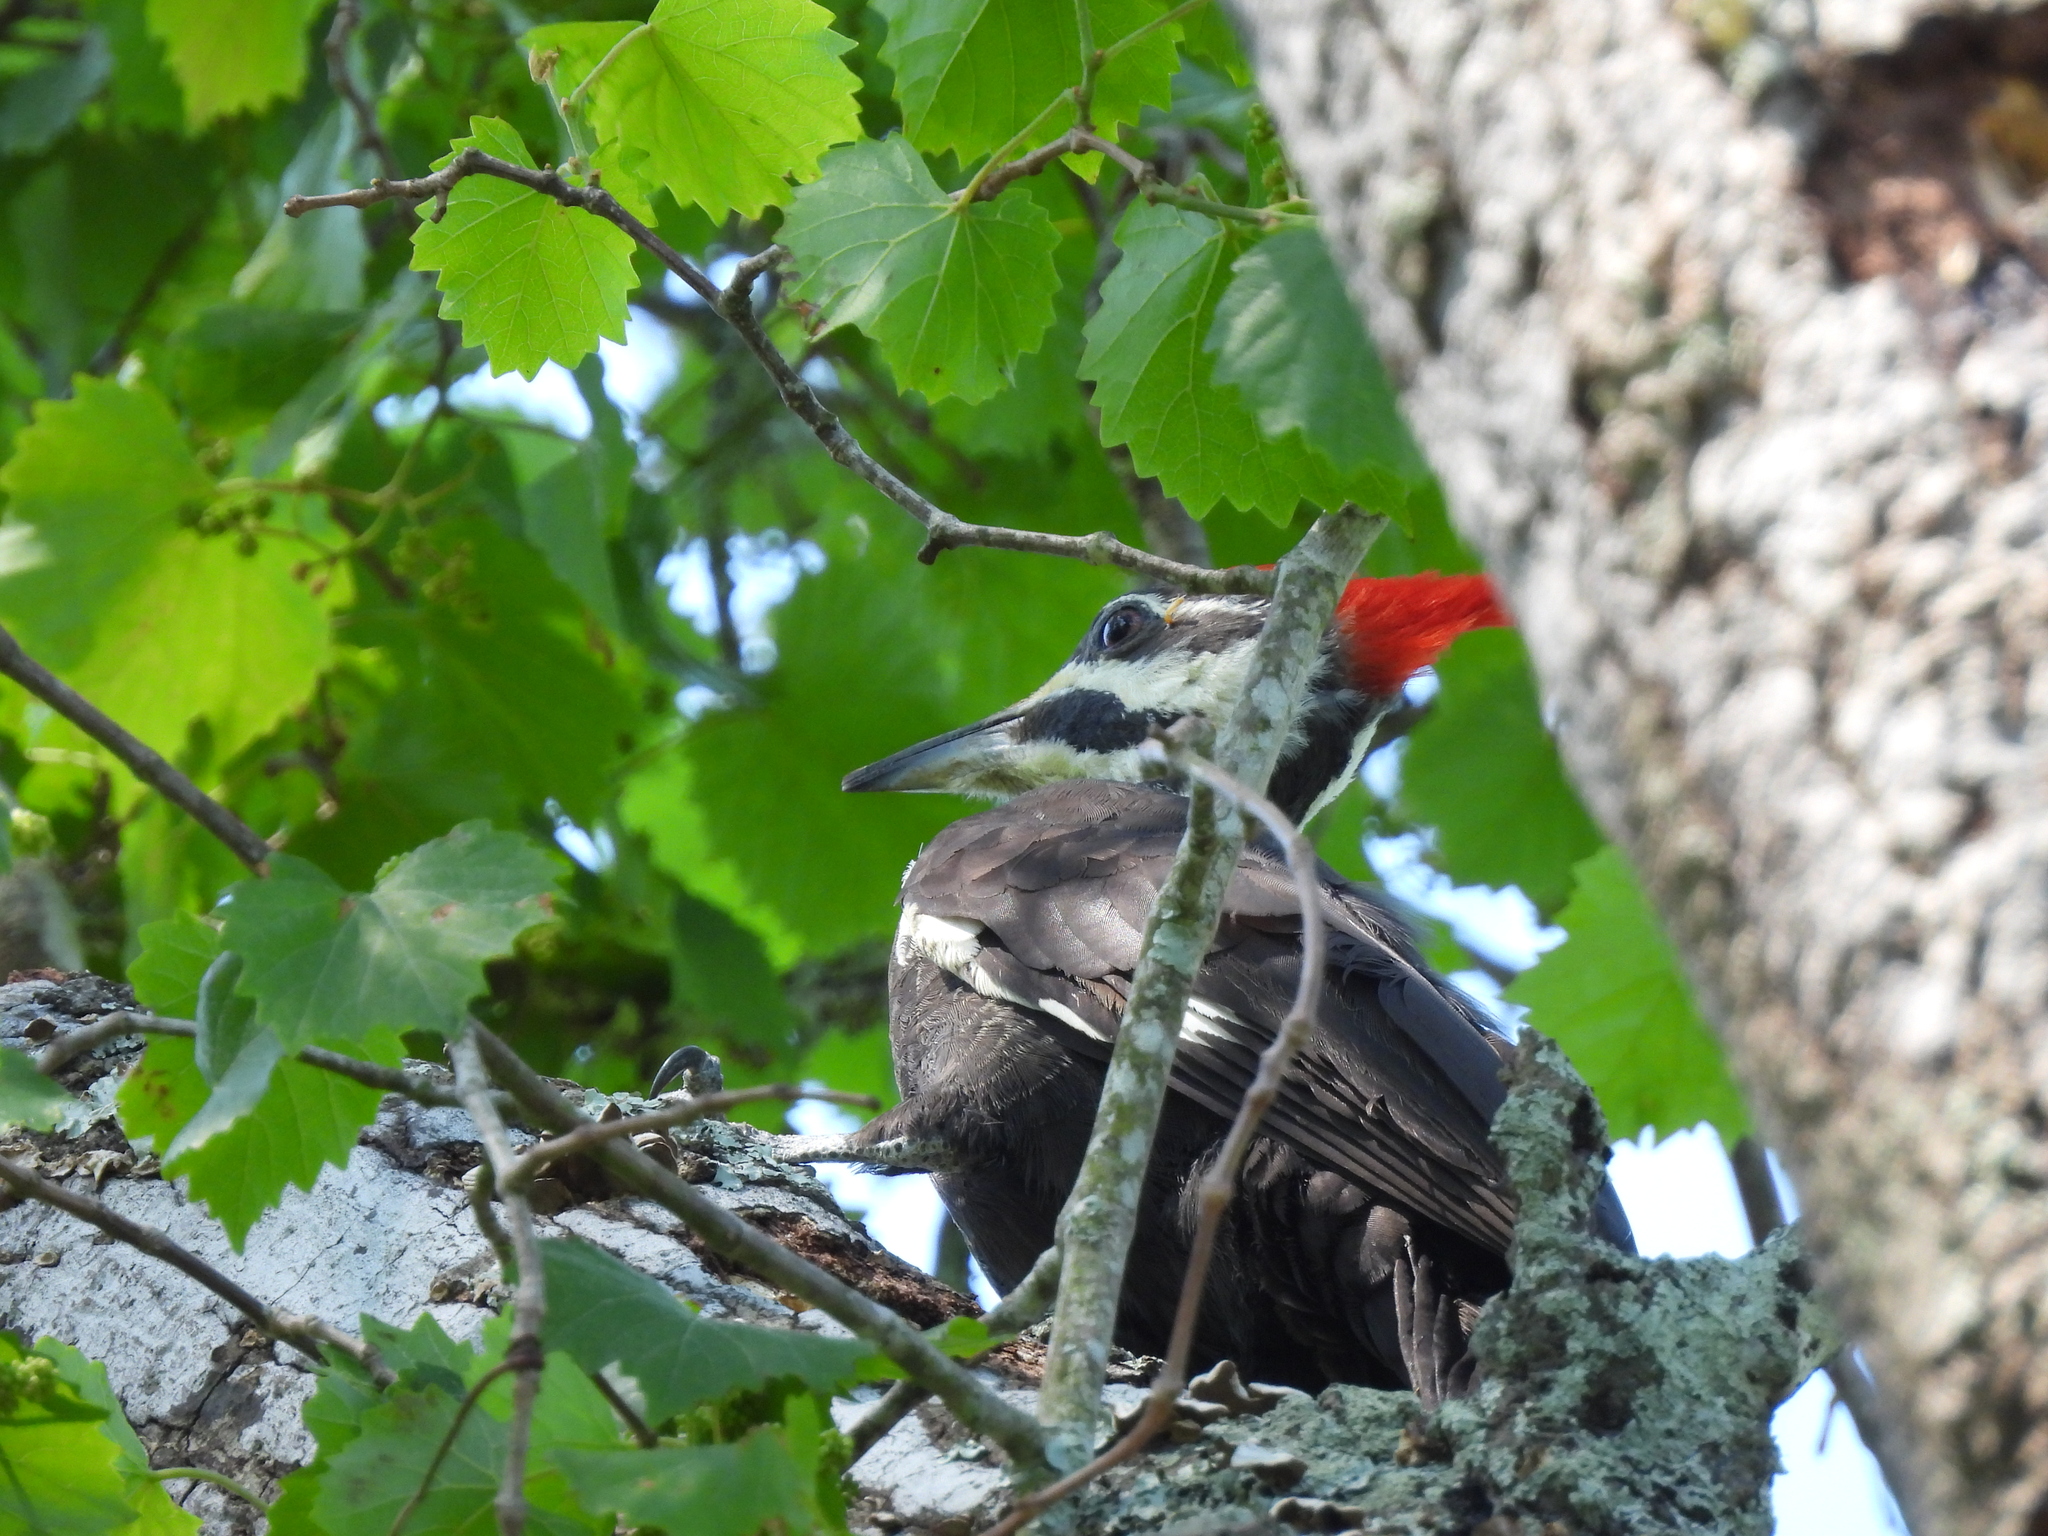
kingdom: Animalia
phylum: Chordata
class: Aves
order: Piciformes
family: Picidae
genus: Dryocopus
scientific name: Dryocopus pileatus
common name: Pileated woodpecker
